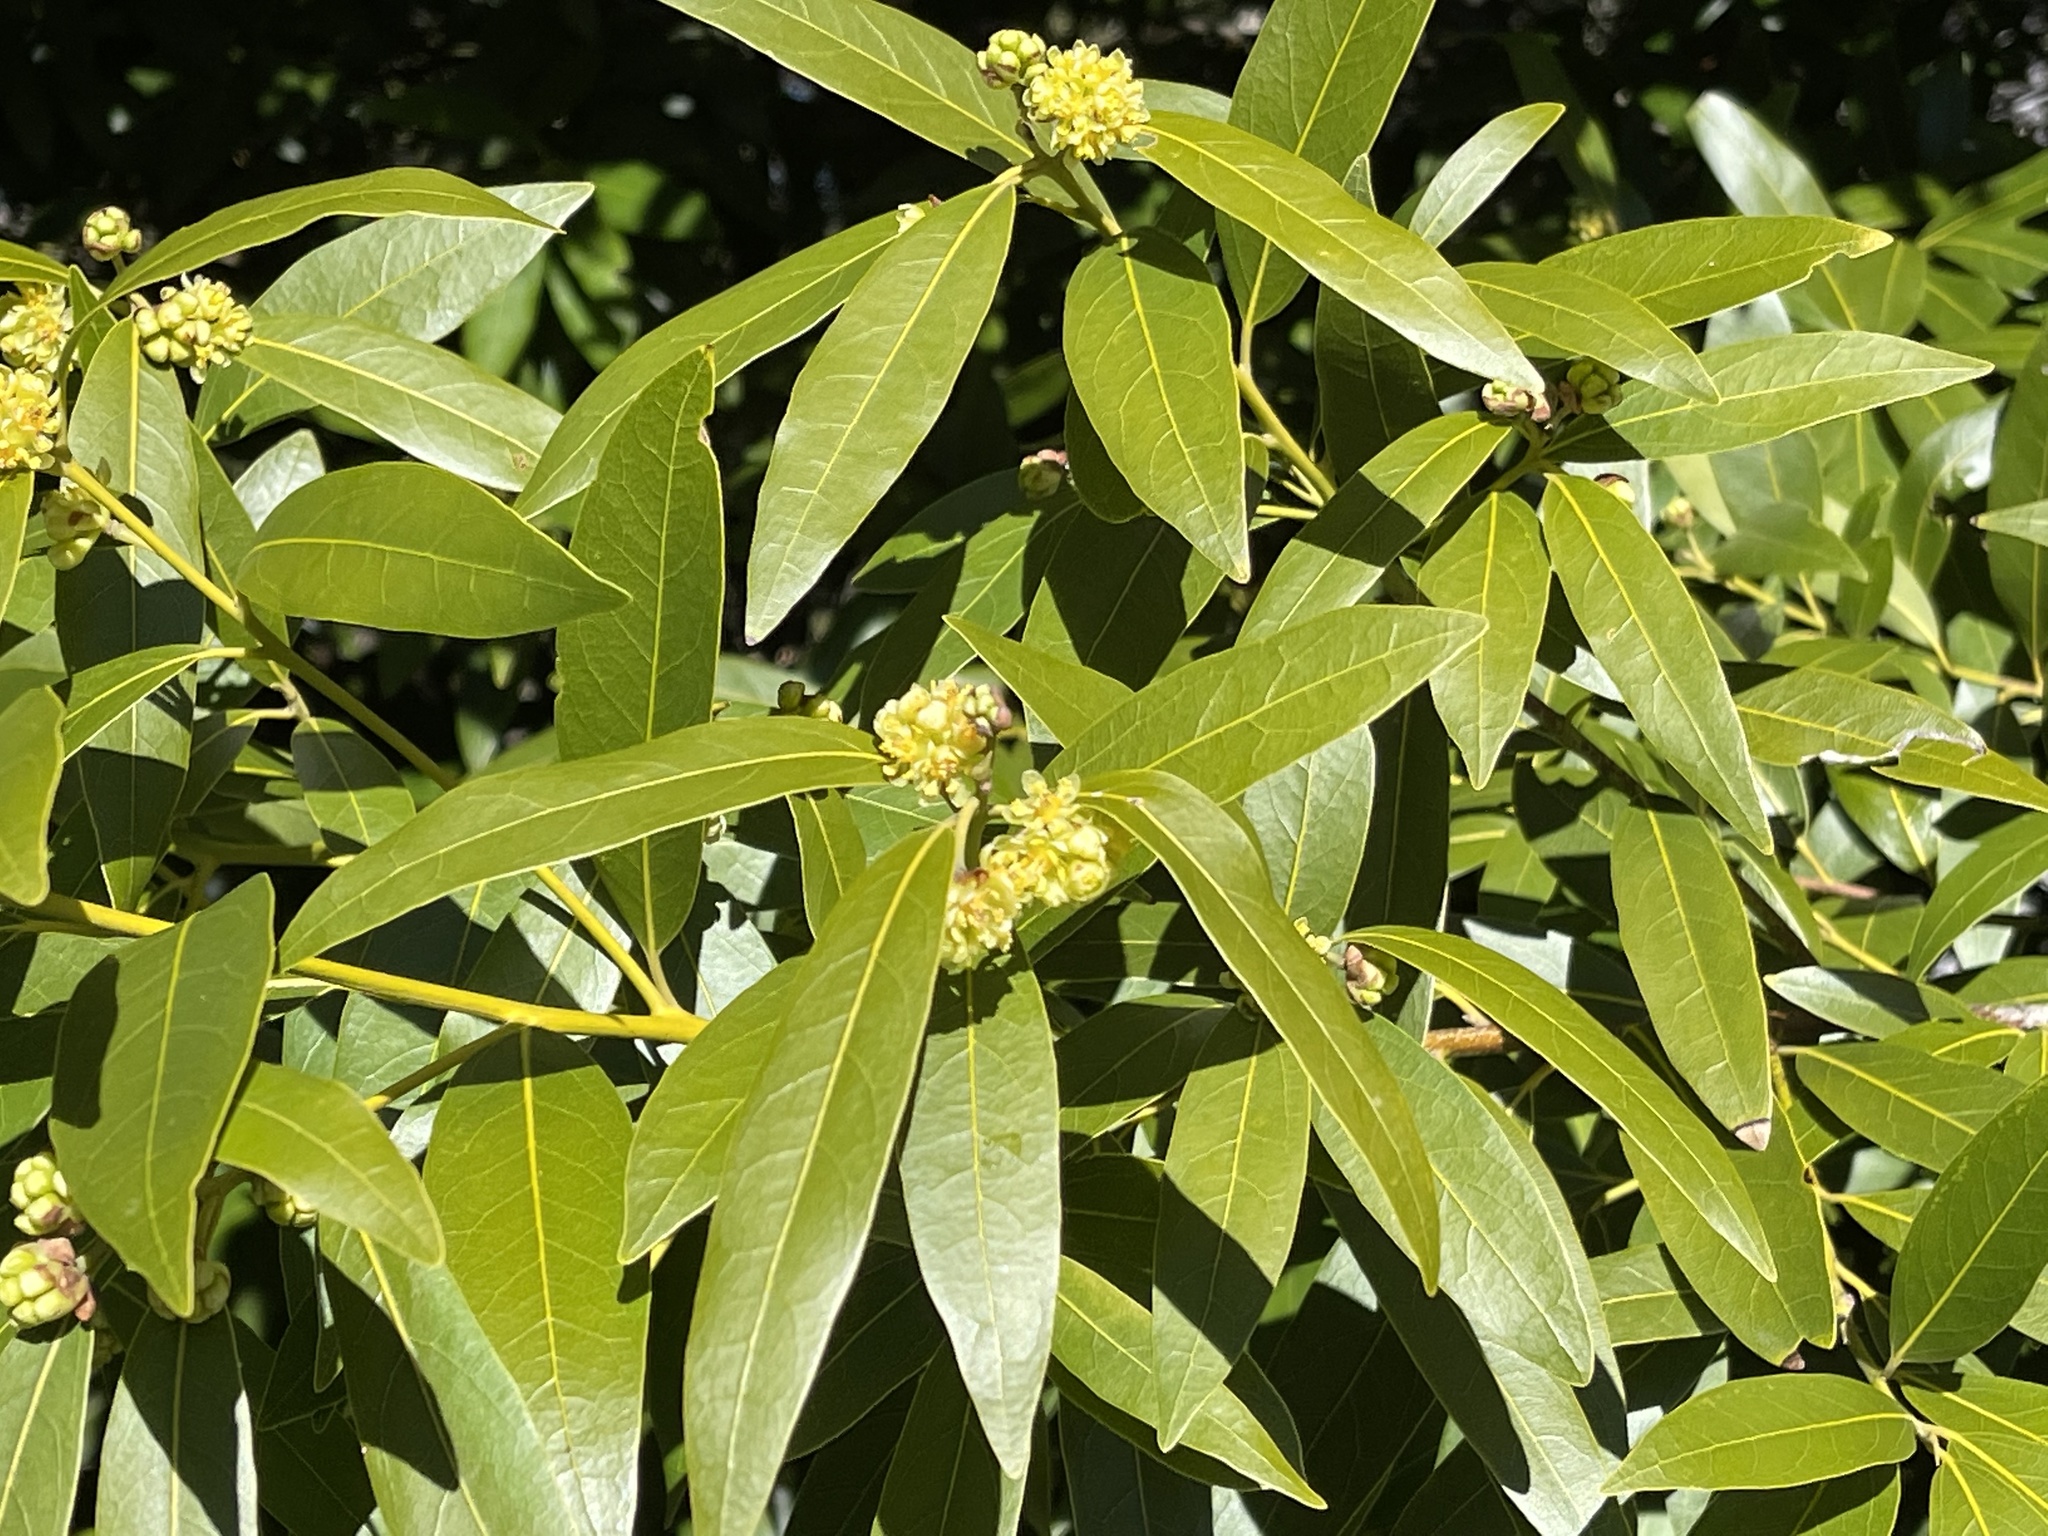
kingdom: Plantae
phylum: Tracheophyta
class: Magnoliopsida
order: Laurales
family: Lauraceae
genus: Umbellularia
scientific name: Umbellularia californica
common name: California bay
